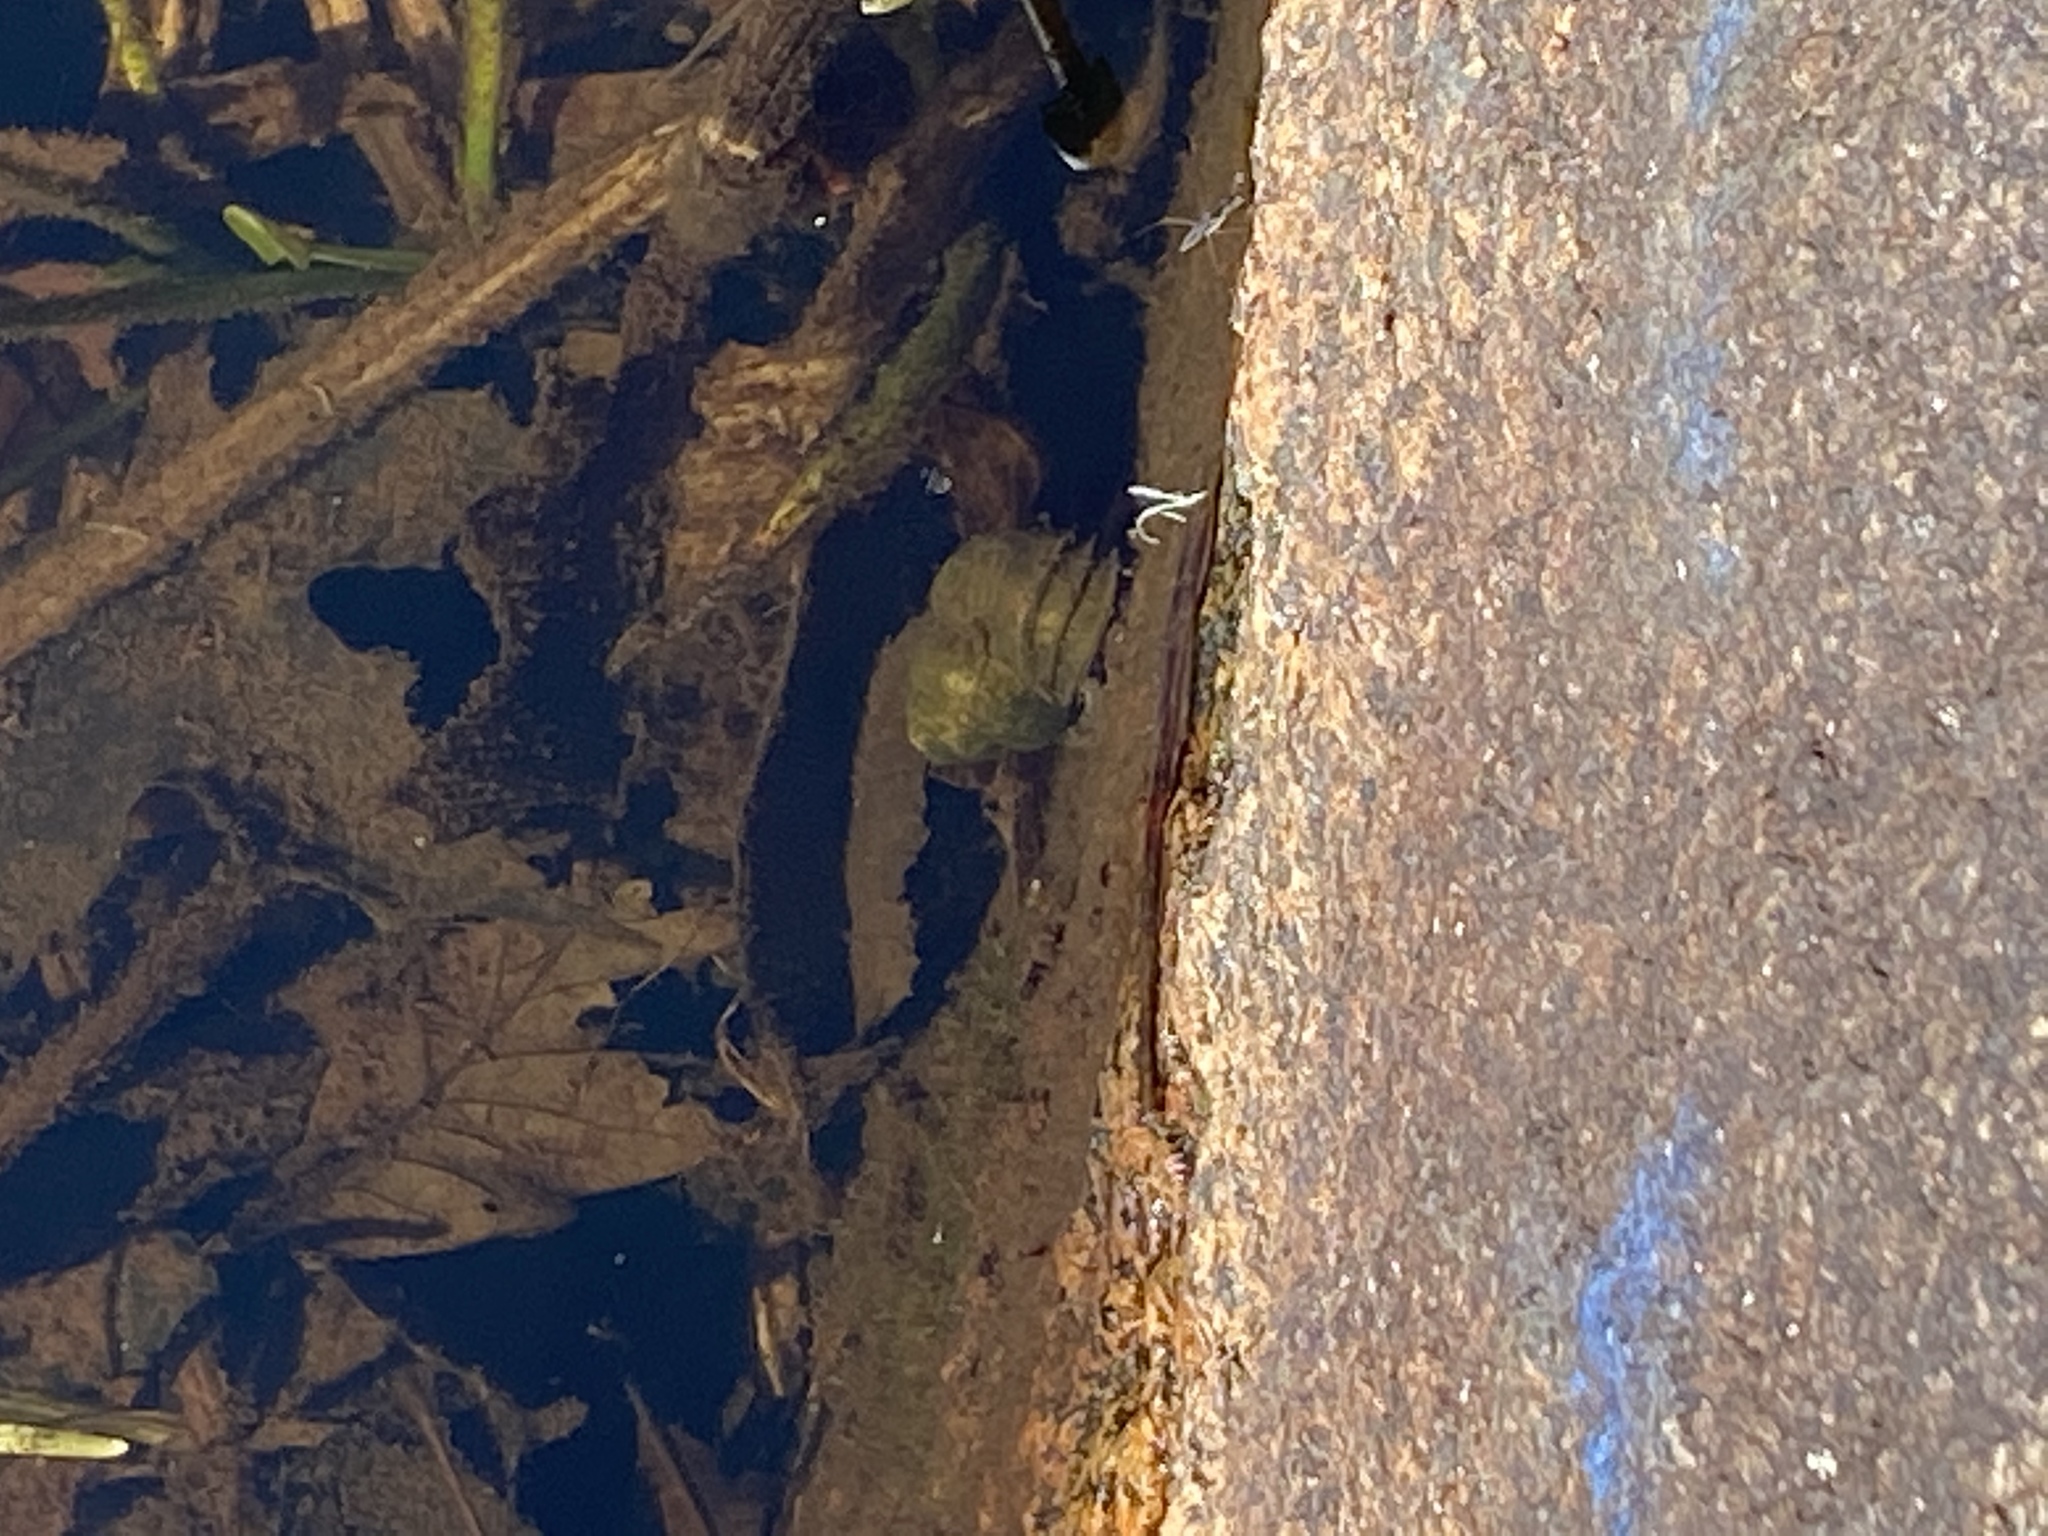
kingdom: Animalia
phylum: Mollusca
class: Gastropoda
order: Architaenioglossa
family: Viviparidae
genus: Cipangopaludina
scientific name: Cipangopaludina chinensis
